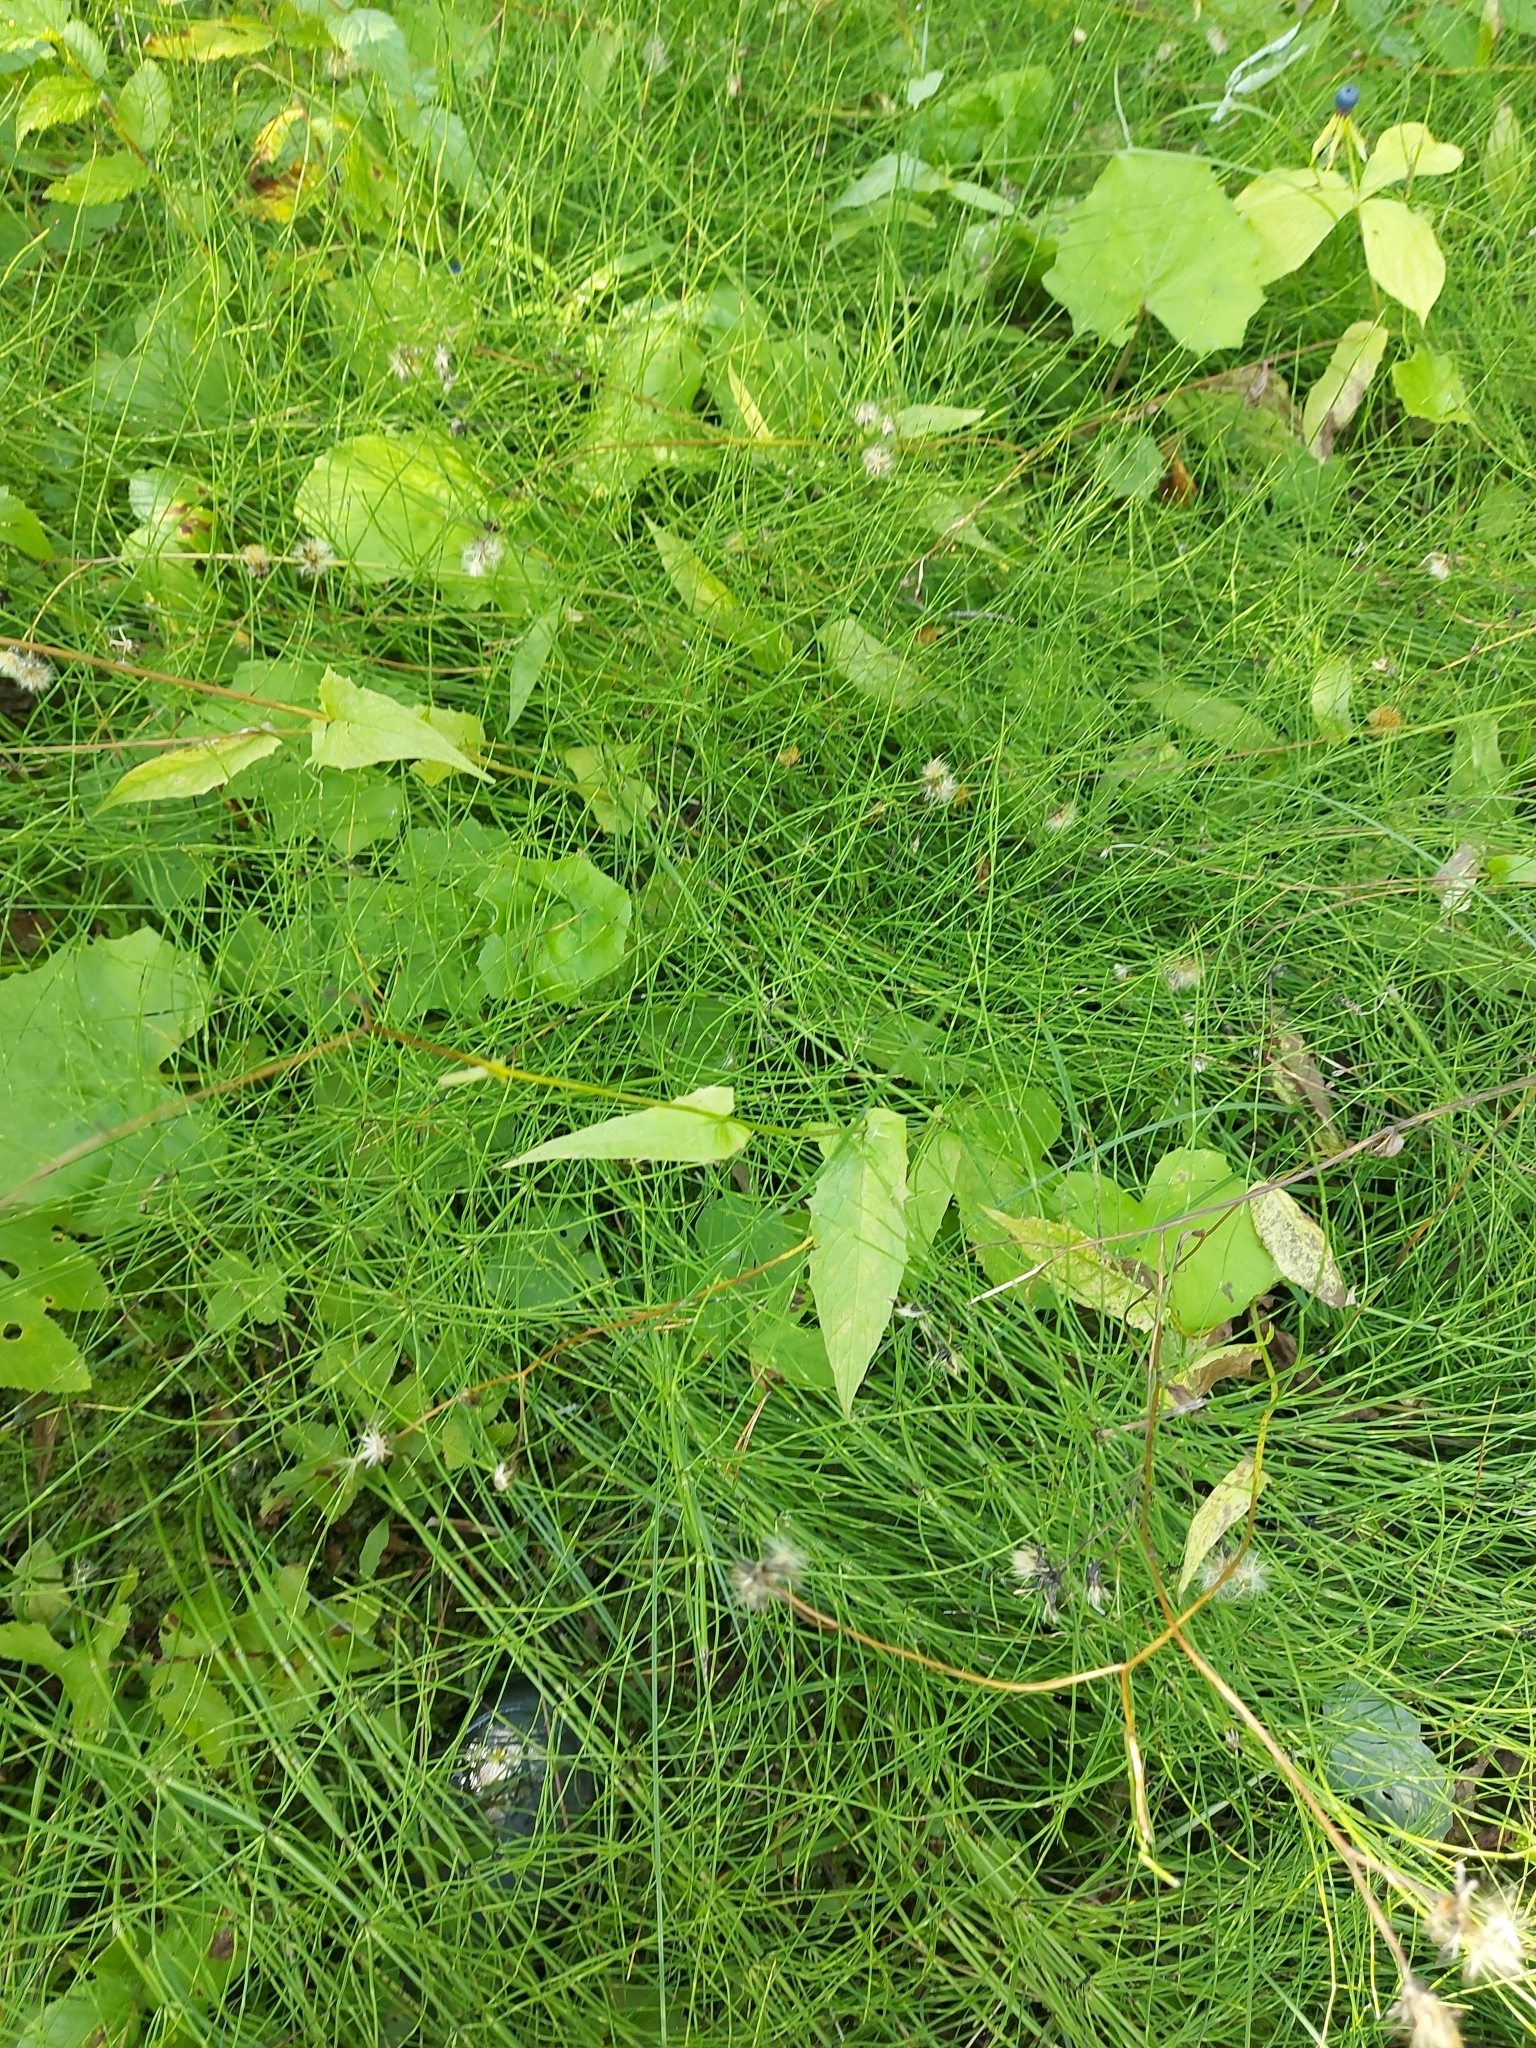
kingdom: Plantae
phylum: Tracheophyta
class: Magnoliopsida
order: Asterales
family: Asteraceae
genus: Crepis
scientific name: Crepis paludosa
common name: Marsh hawk's-beard
